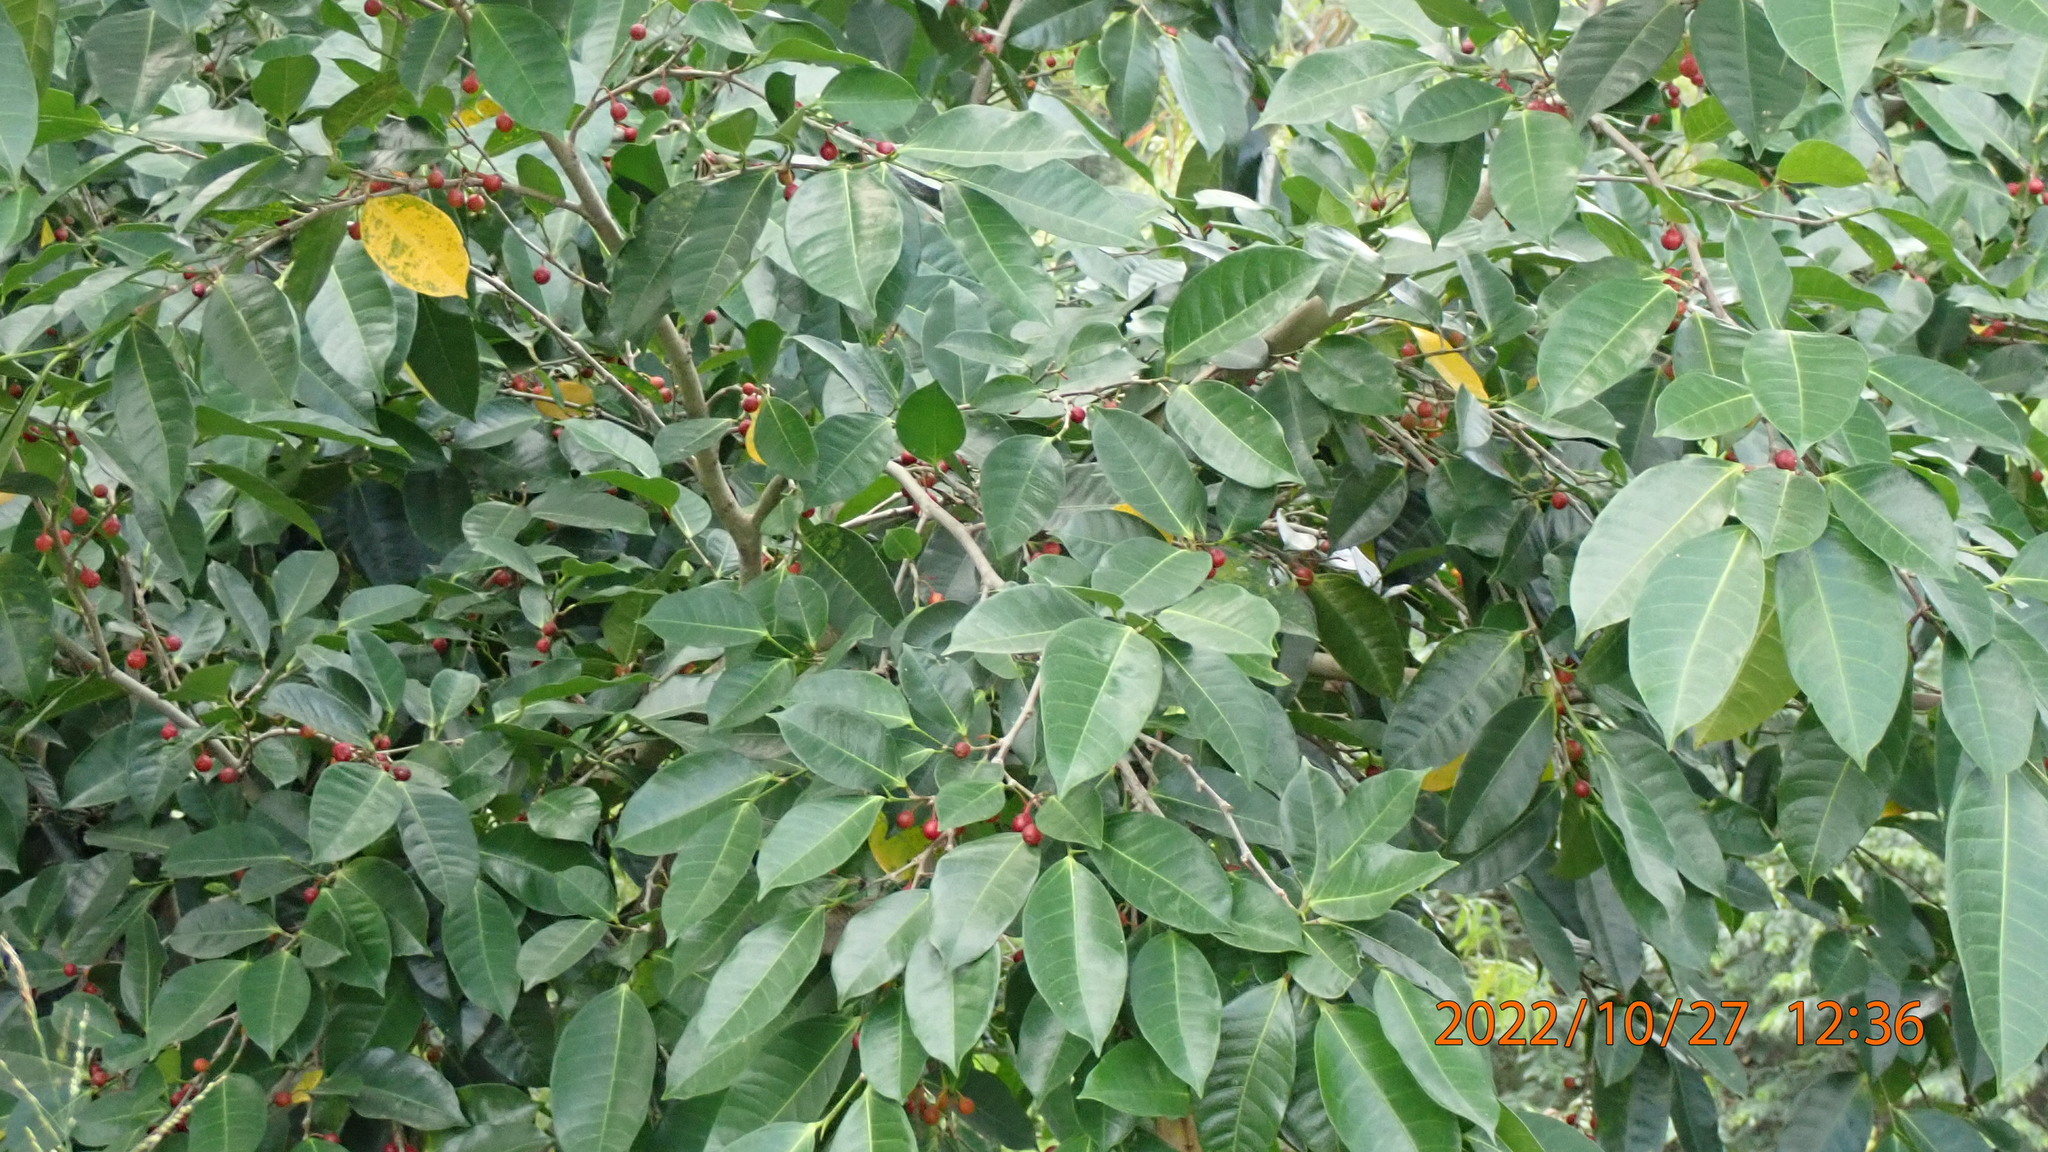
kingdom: Plantae
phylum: Tracheophyta
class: Magnoliopsida
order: Rosales
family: Moraceae
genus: Ficus
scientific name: Ficus virgata
